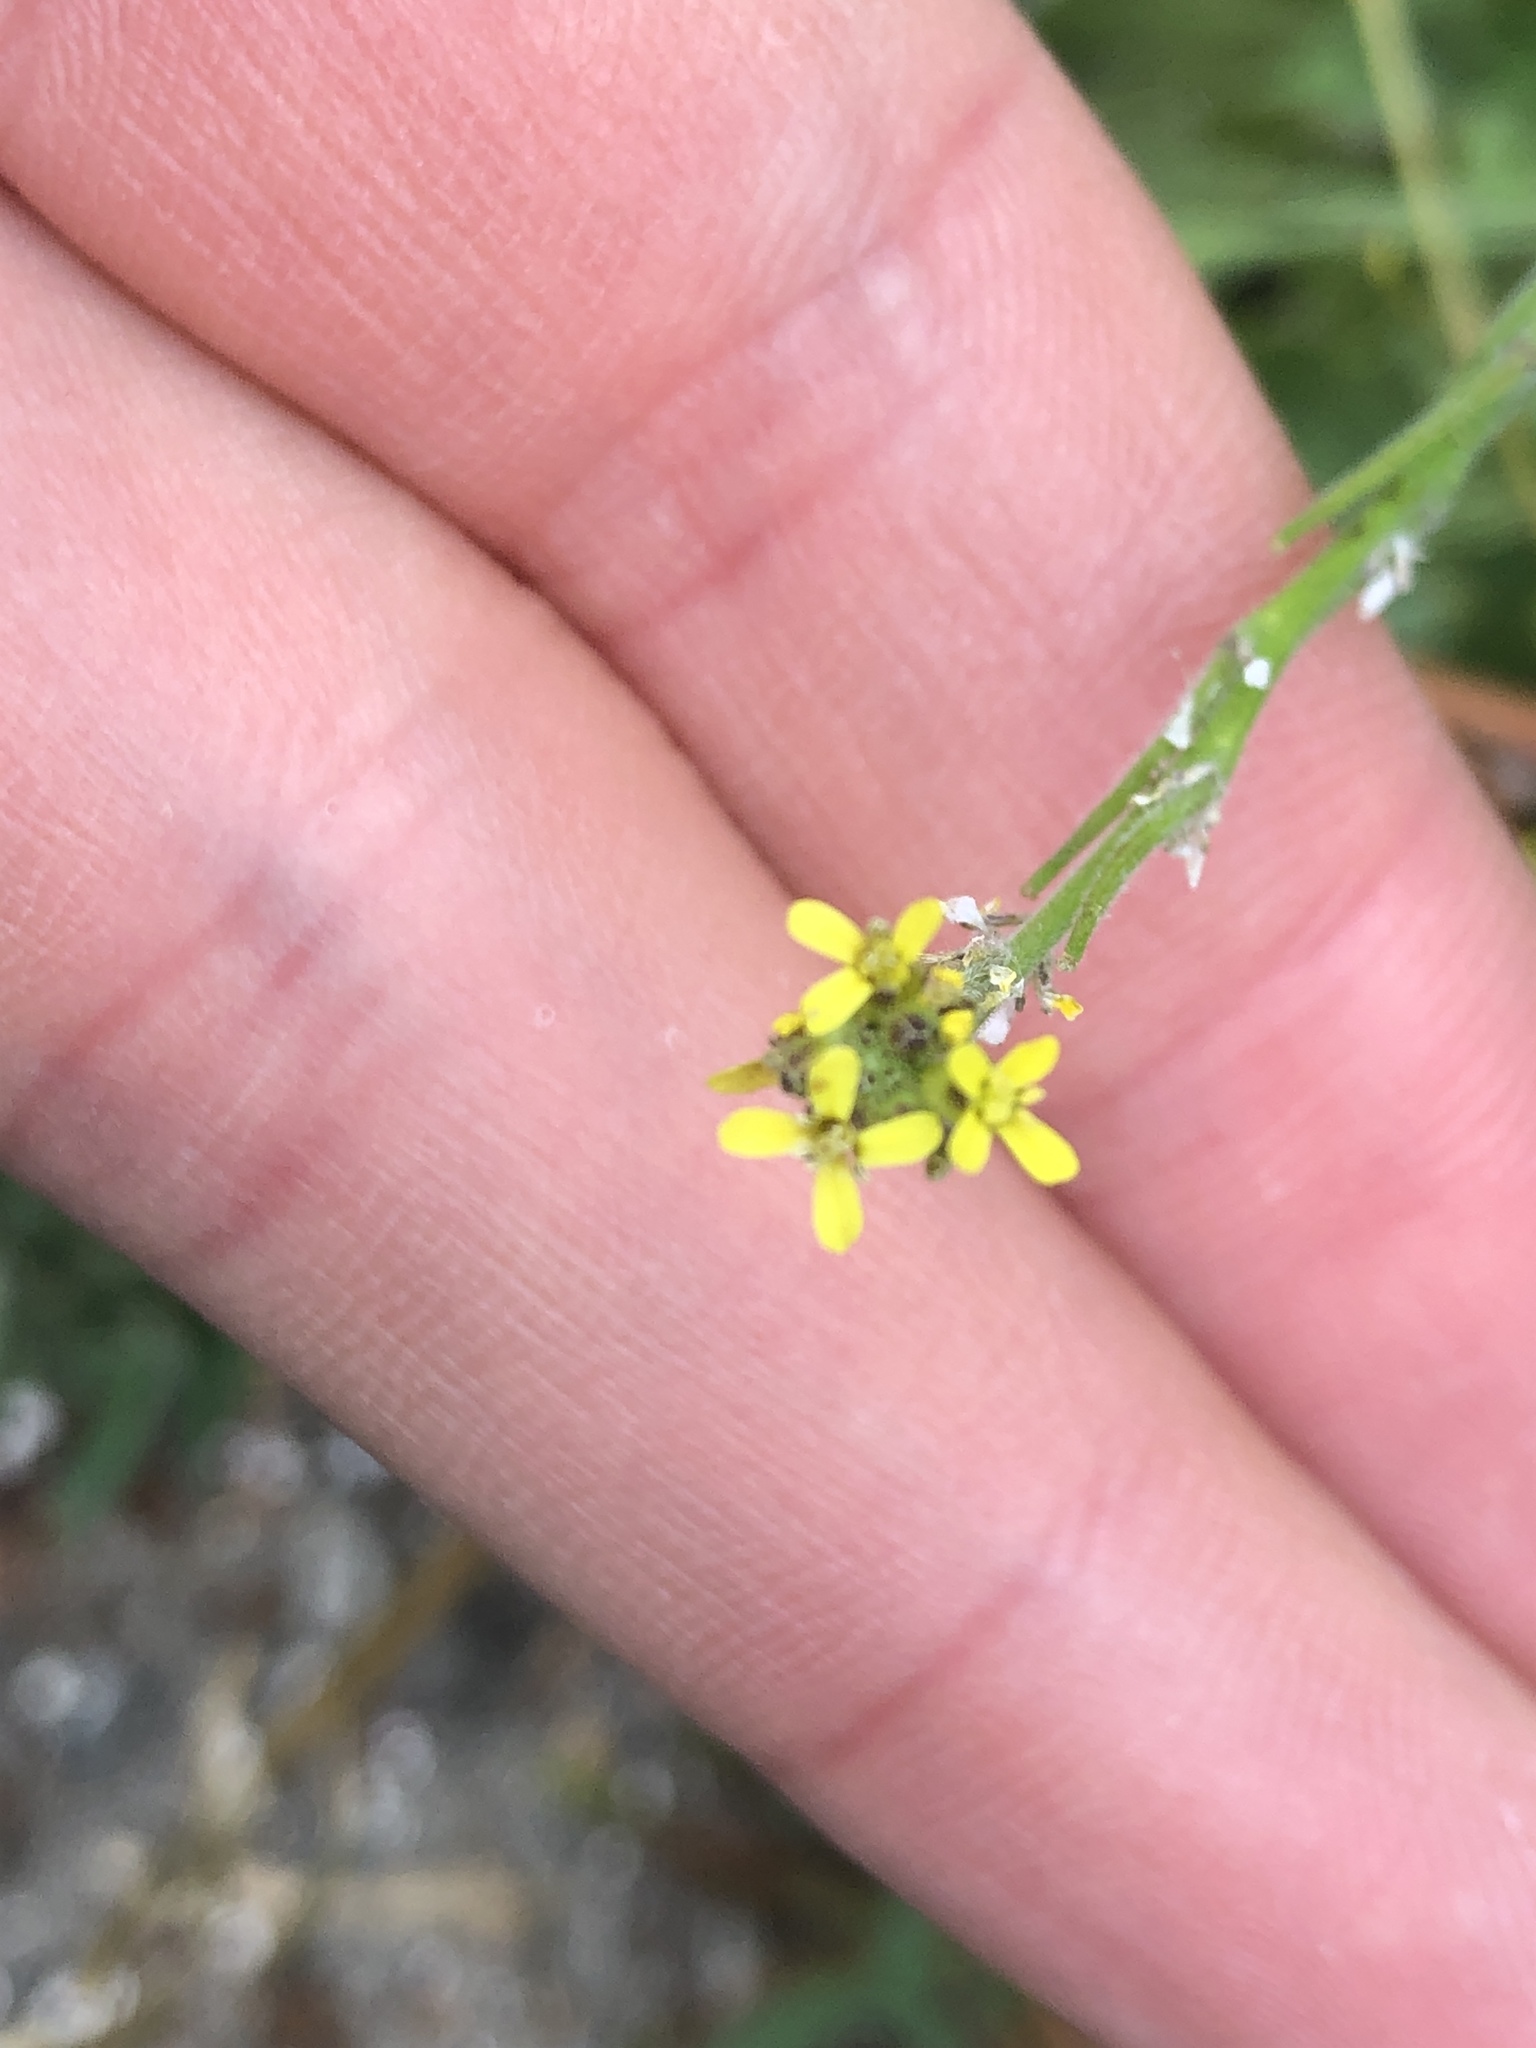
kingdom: Plantae
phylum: Tracheophyta
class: Magnoliopsida
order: Brassicales
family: Brassicaceae
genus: Sisymbrium
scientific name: Sisymbrium officinale
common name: Hedge mustard
